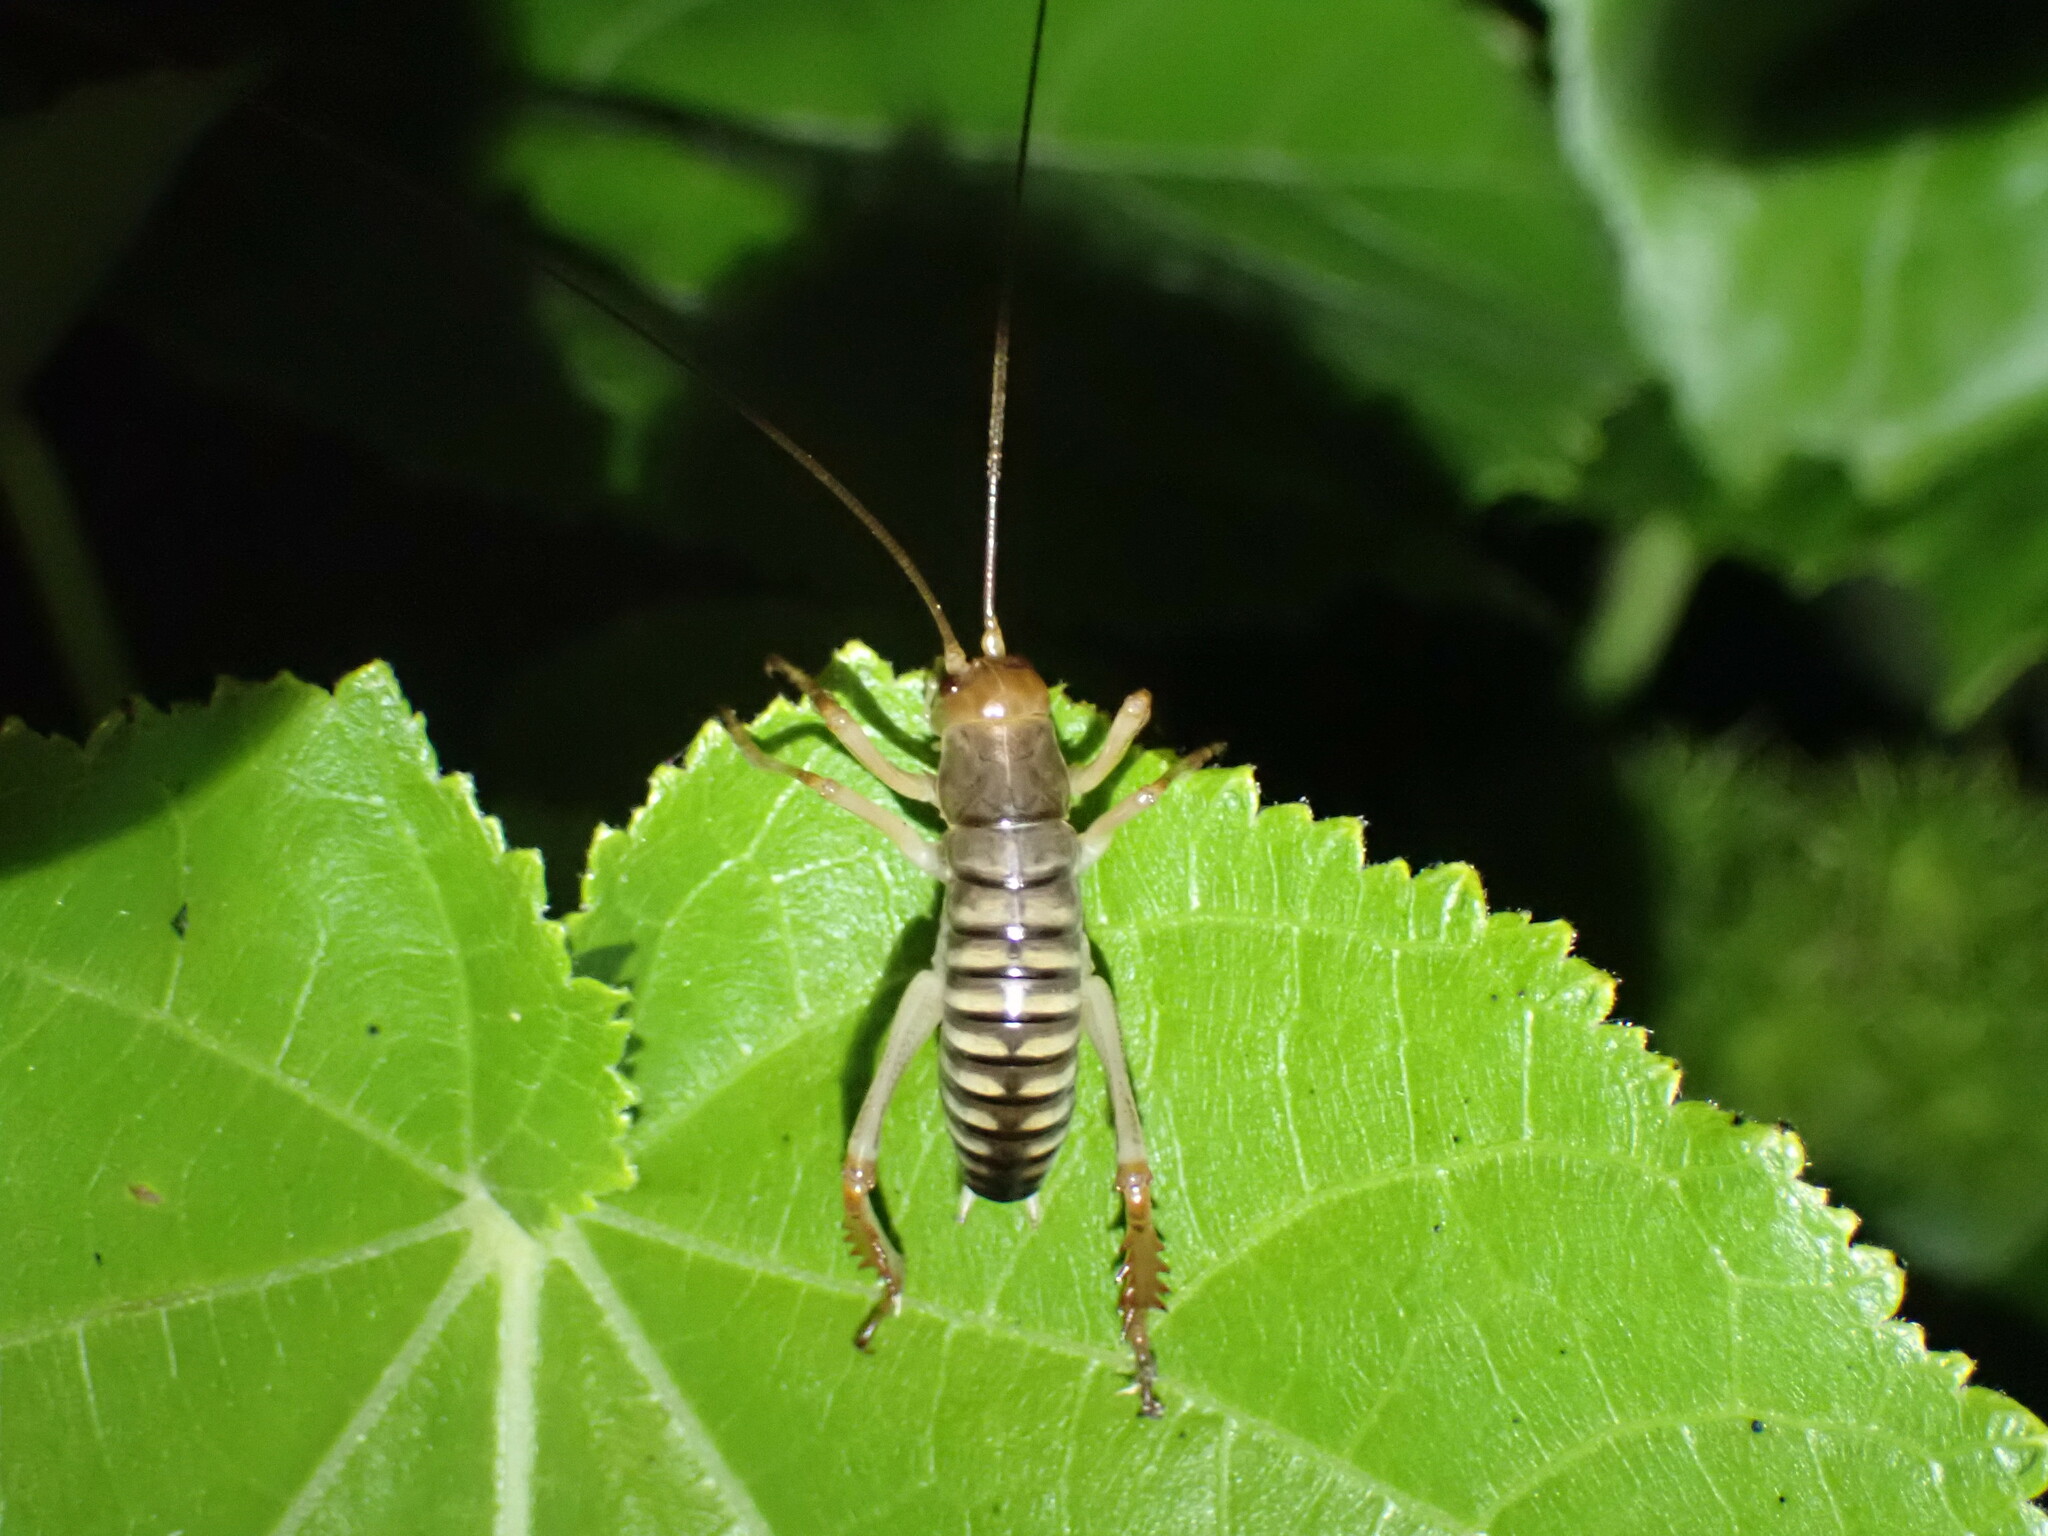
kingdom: Animalia
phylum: Arthropoda
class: Insecta
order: Orthoptera
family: Anostostomatidae
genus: Hemideina
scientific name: Hemideina crassidens
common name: Wellington tree weta
